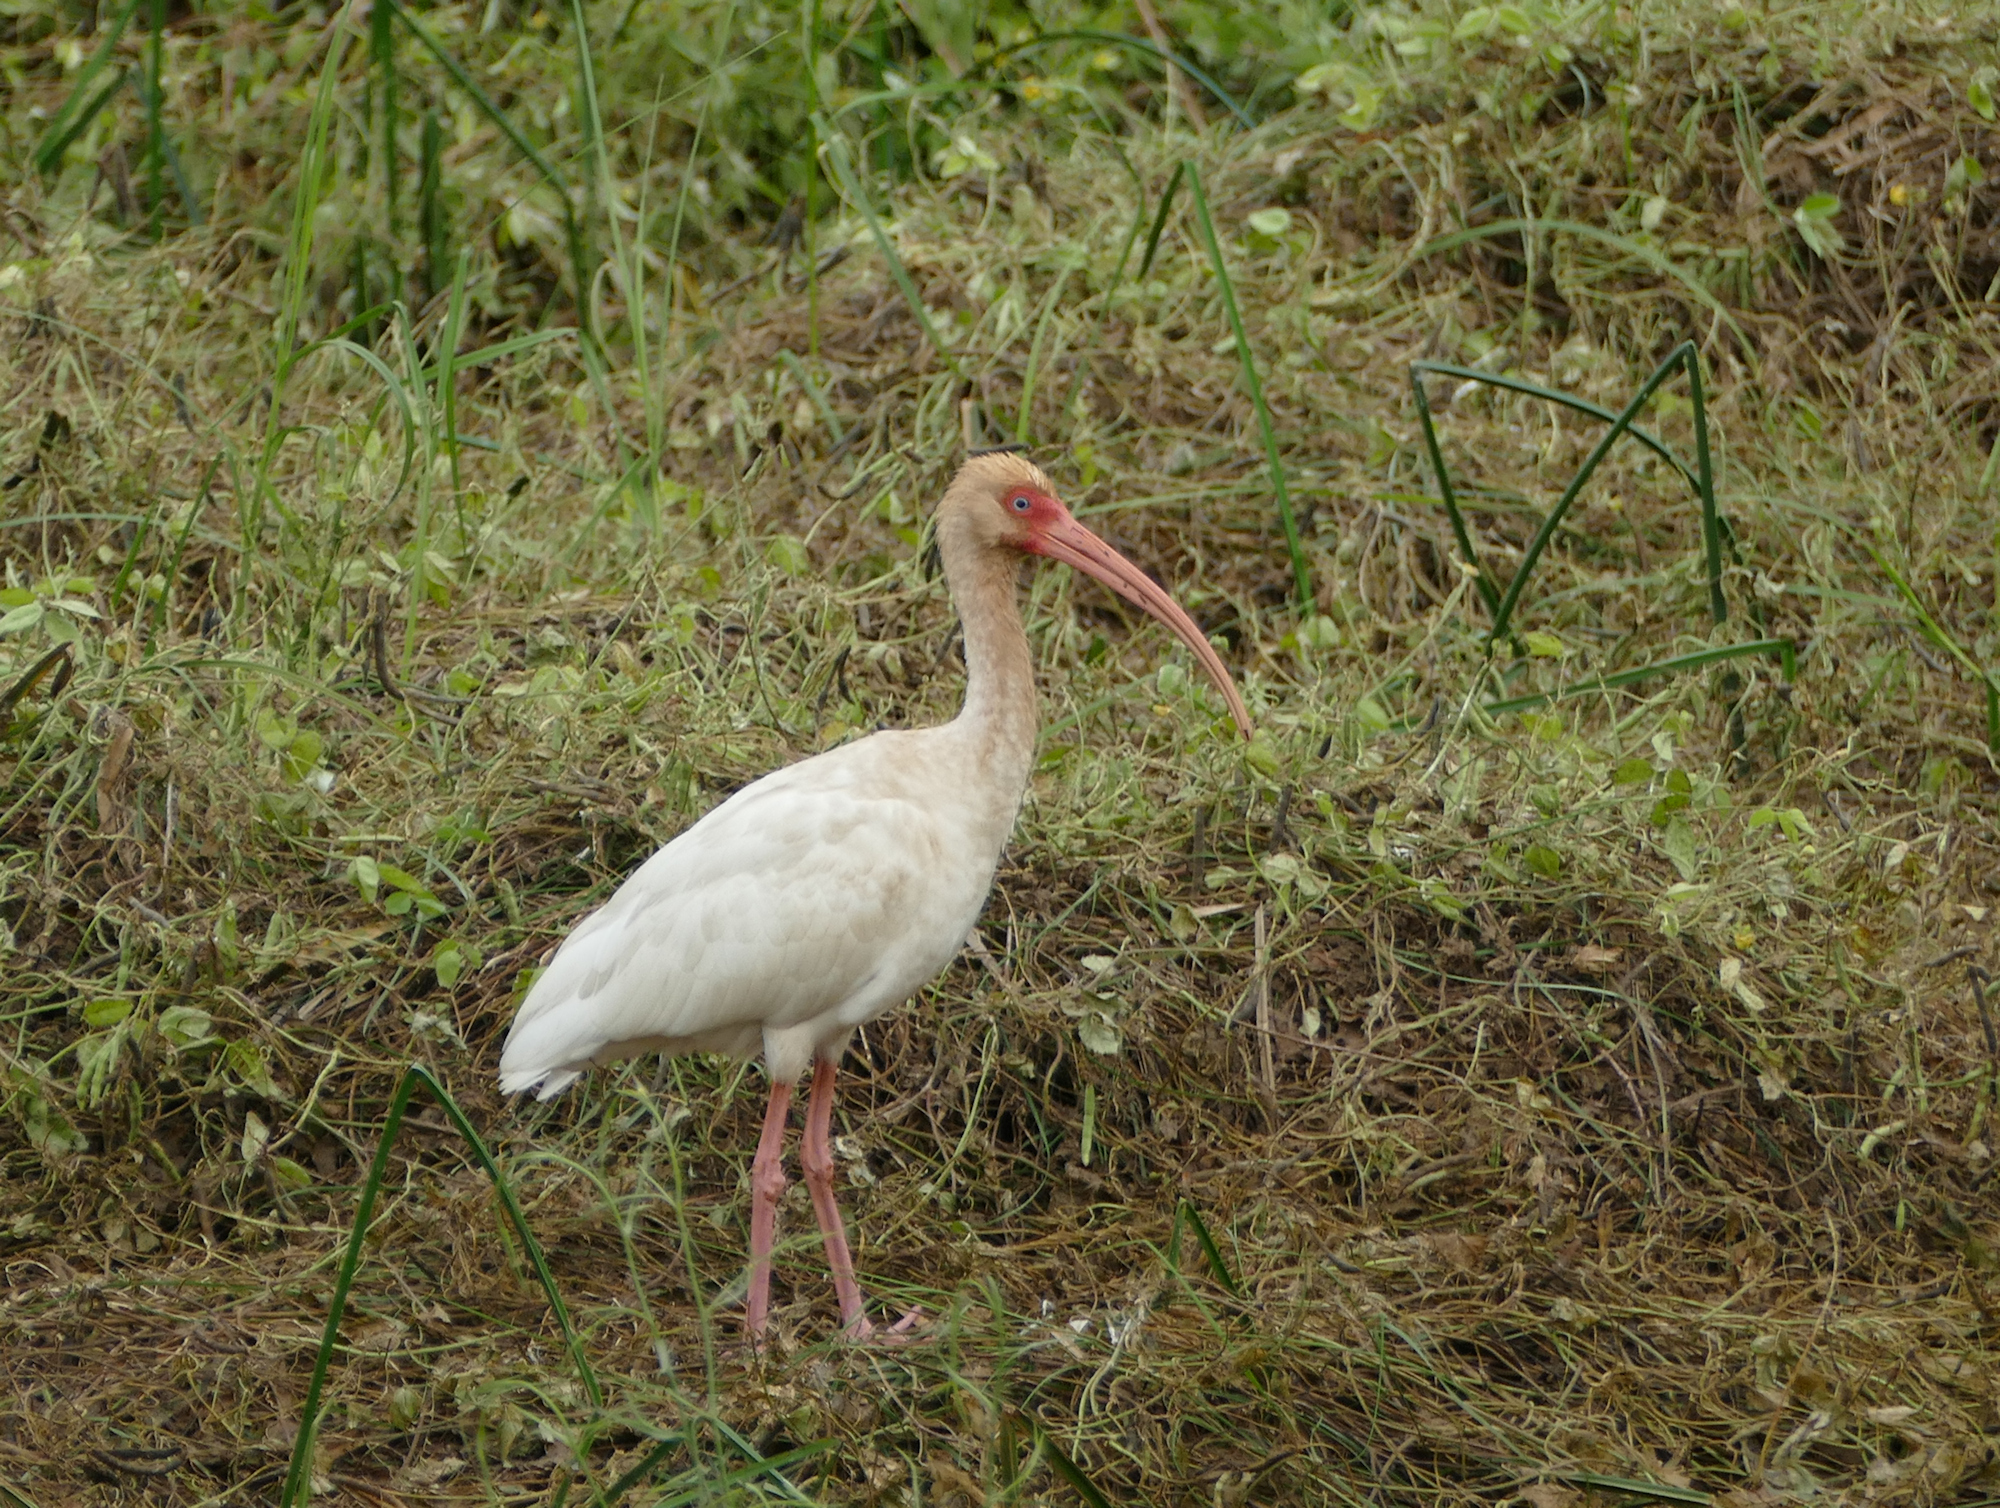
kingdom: Animalia
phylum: Chordata
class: Aves
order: Pelecaniformes
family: Threskiornithidae
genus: Eudocimus
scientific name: Eudocimus albus
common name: White ibis
